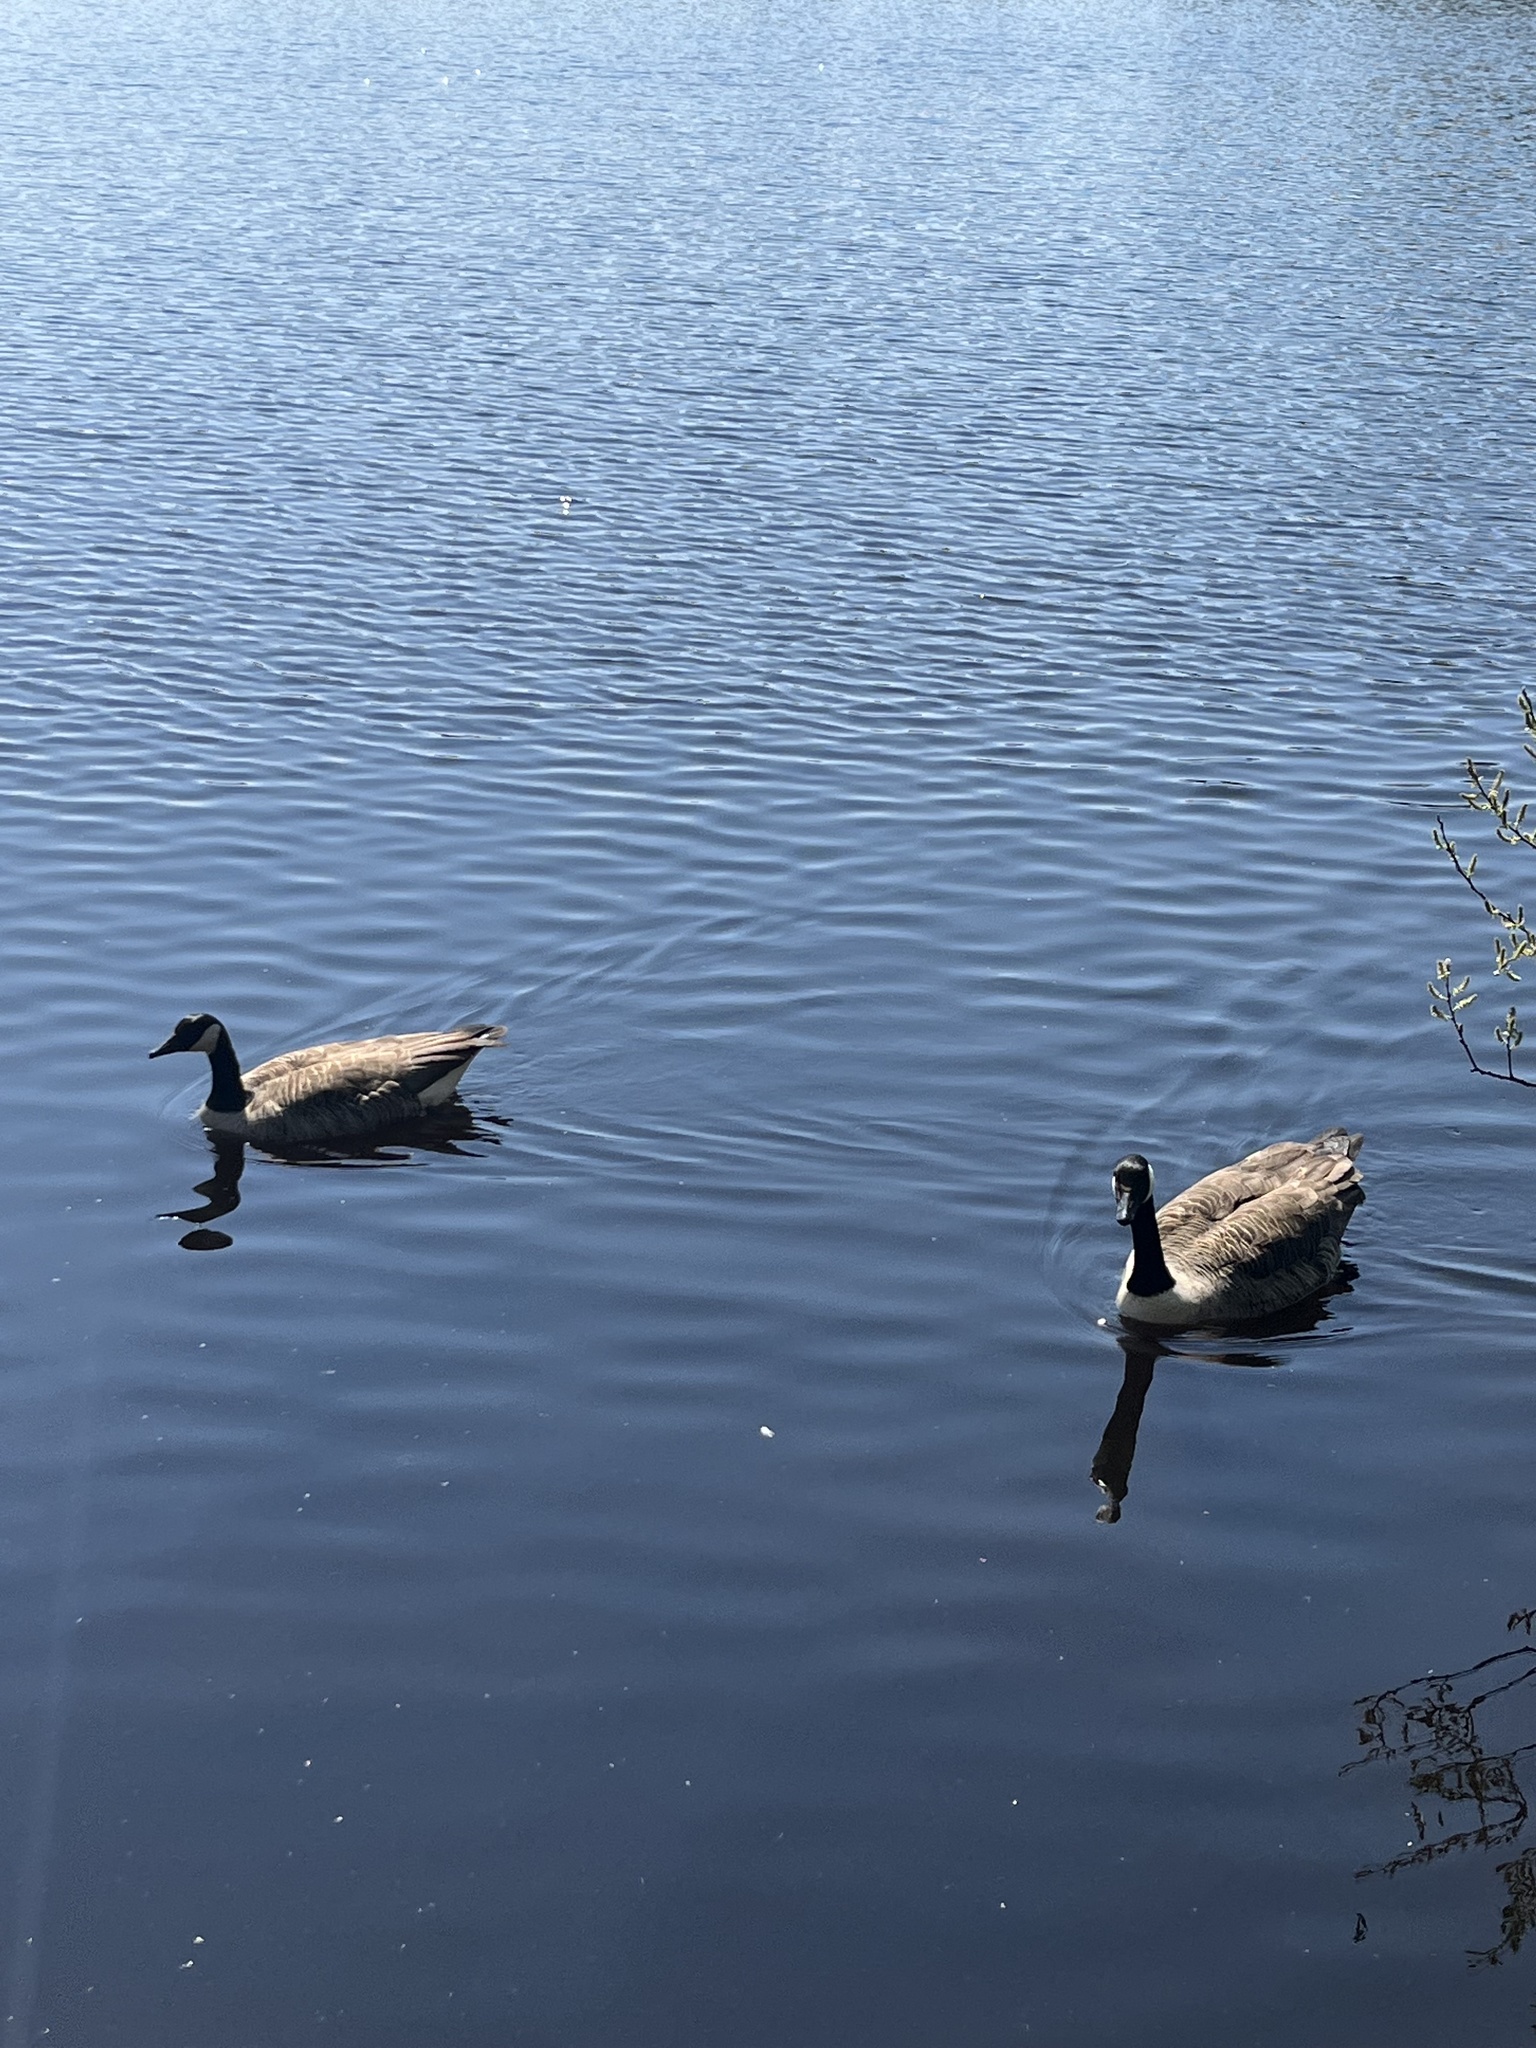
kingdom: Animalia
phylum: Chordata
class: Aves
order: Anseriformes
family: Anatidae
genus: Branta
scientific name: Branta canadensis
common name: Canada goose
